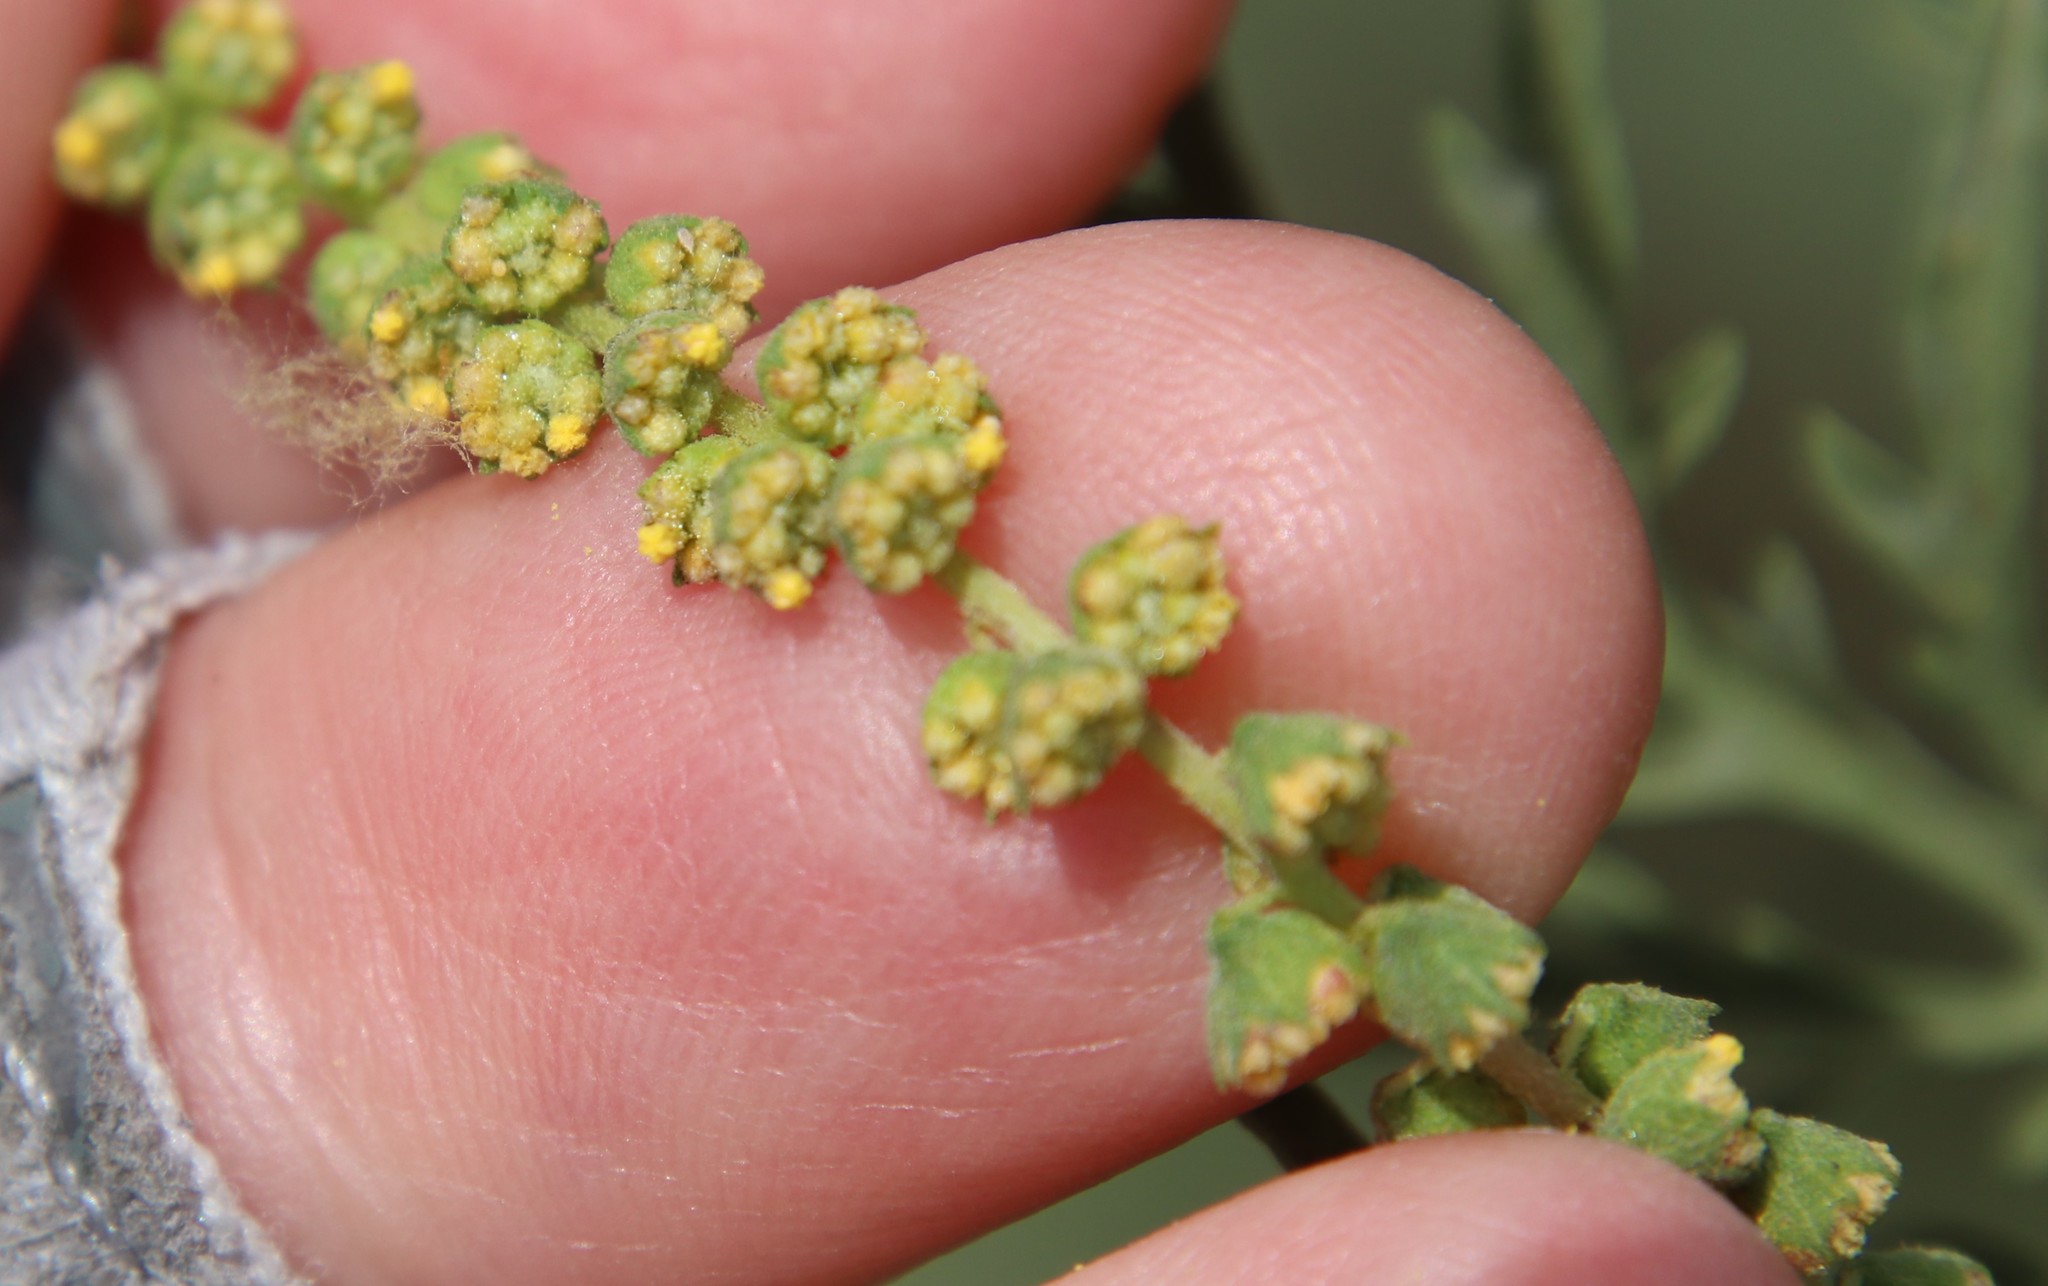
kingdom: Plantae
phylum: Tracheophyta
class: Magnoliopsida
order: Asterales
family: Asteraceae
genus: Ambrosia
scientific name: Ambrosia confertiflora
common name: Bur ragweed
